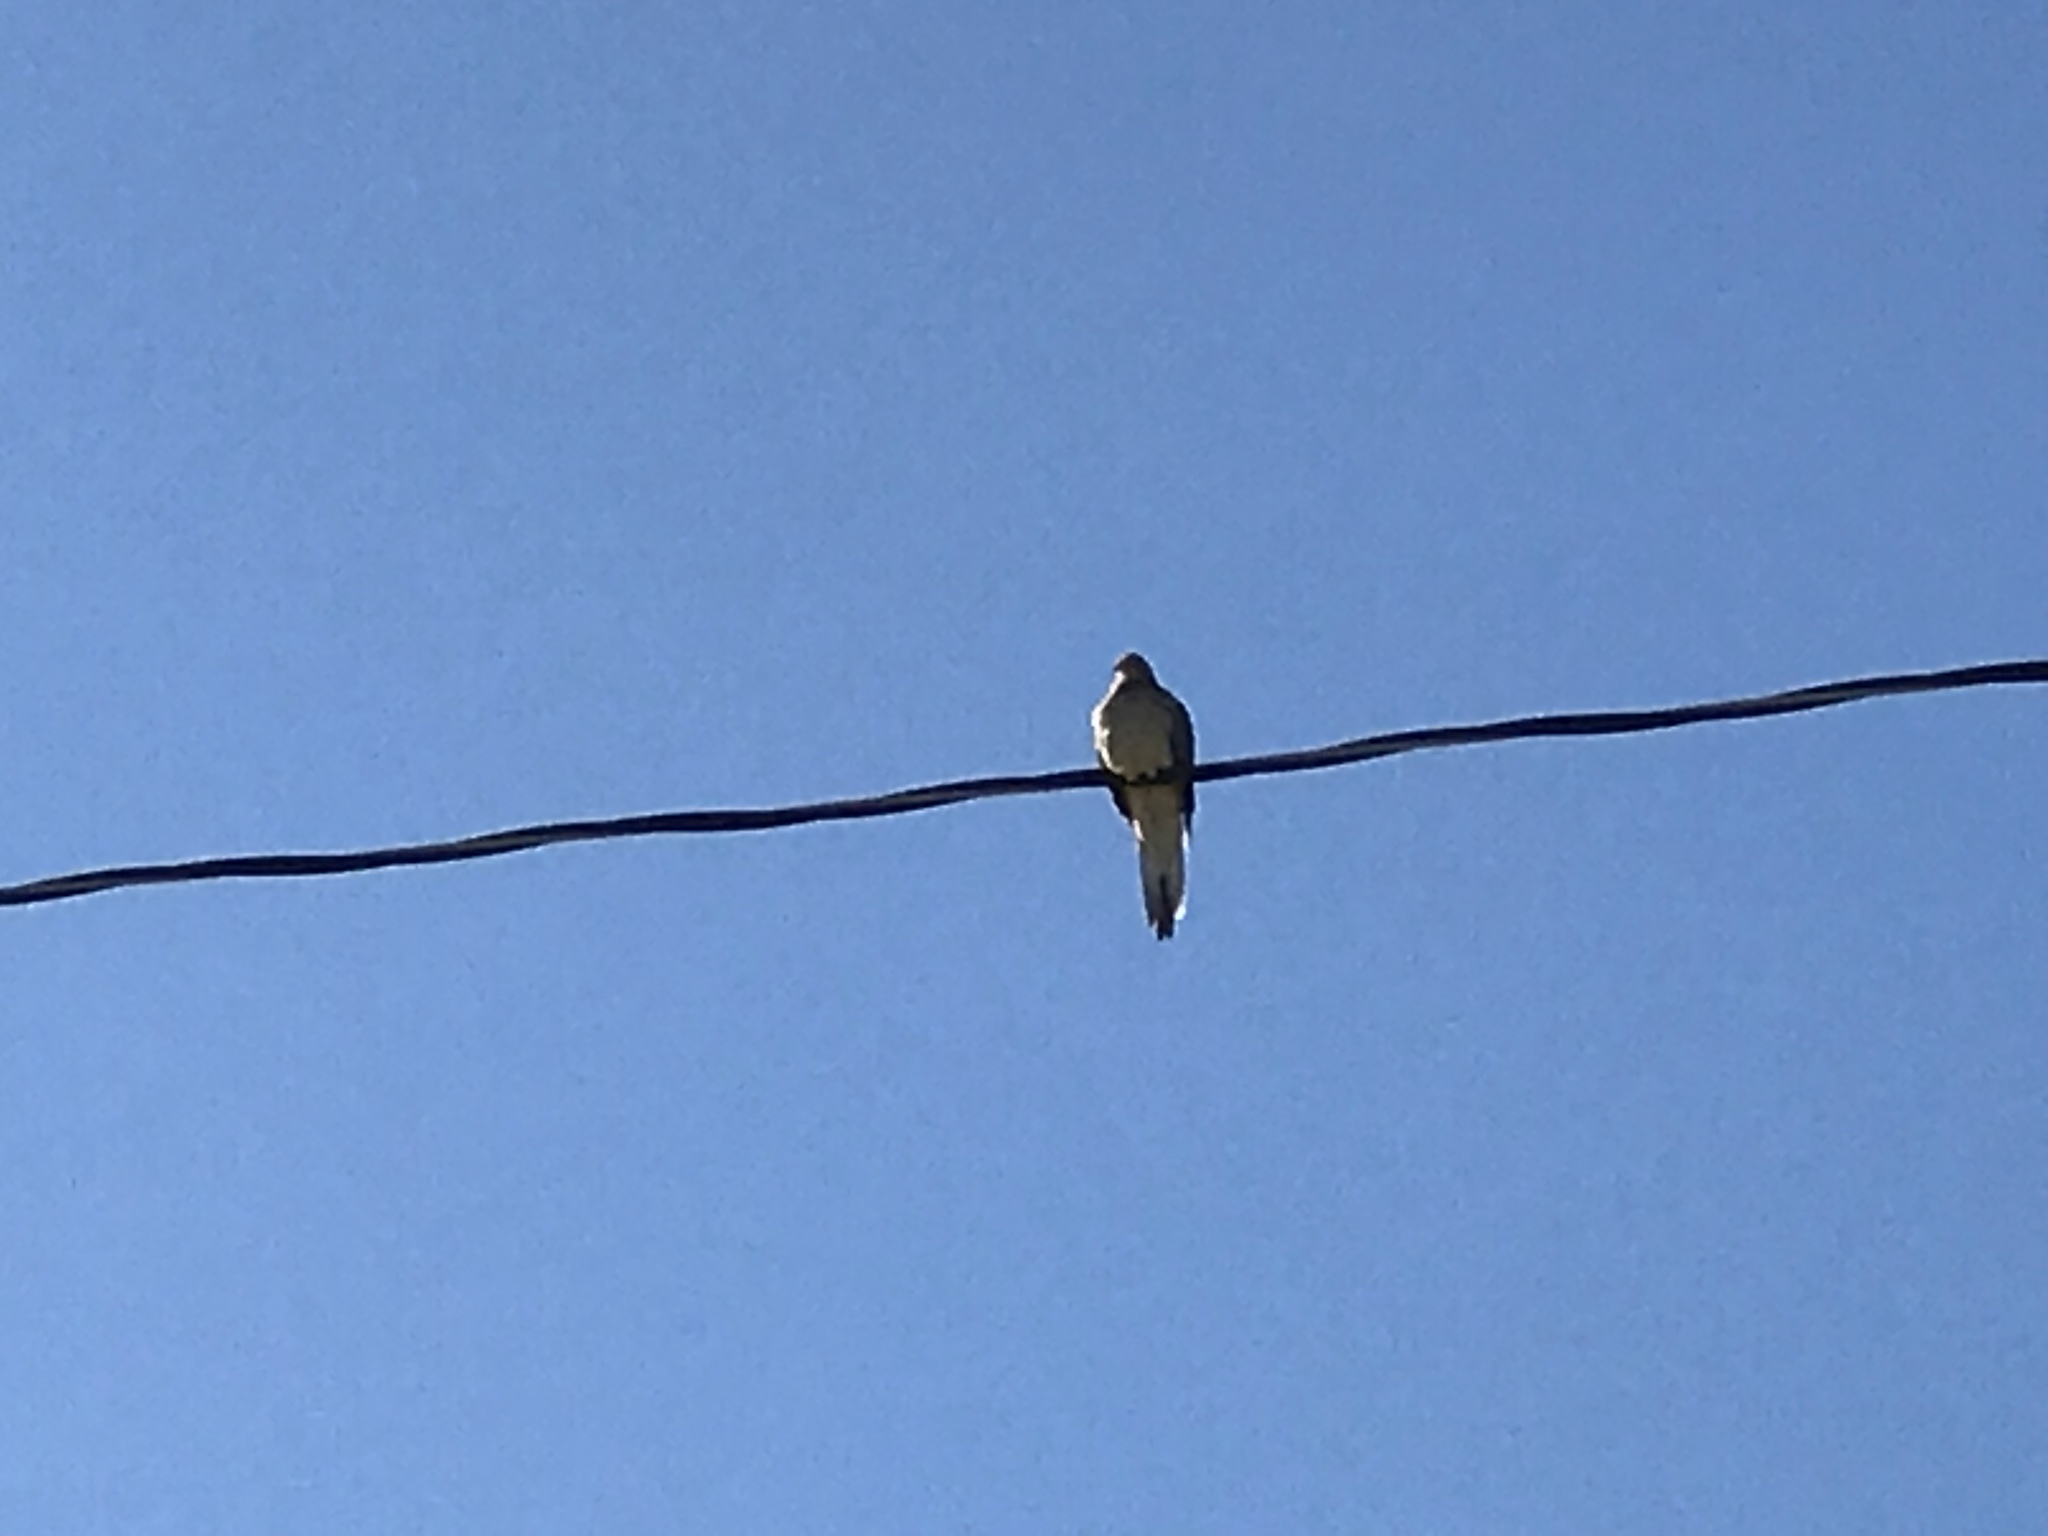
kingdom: Animalia
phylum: Chordata
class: Aves
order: Columbiformes
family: Columbidae
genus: Zenaida
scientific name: Zenaida macroura
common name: Mourning dove
